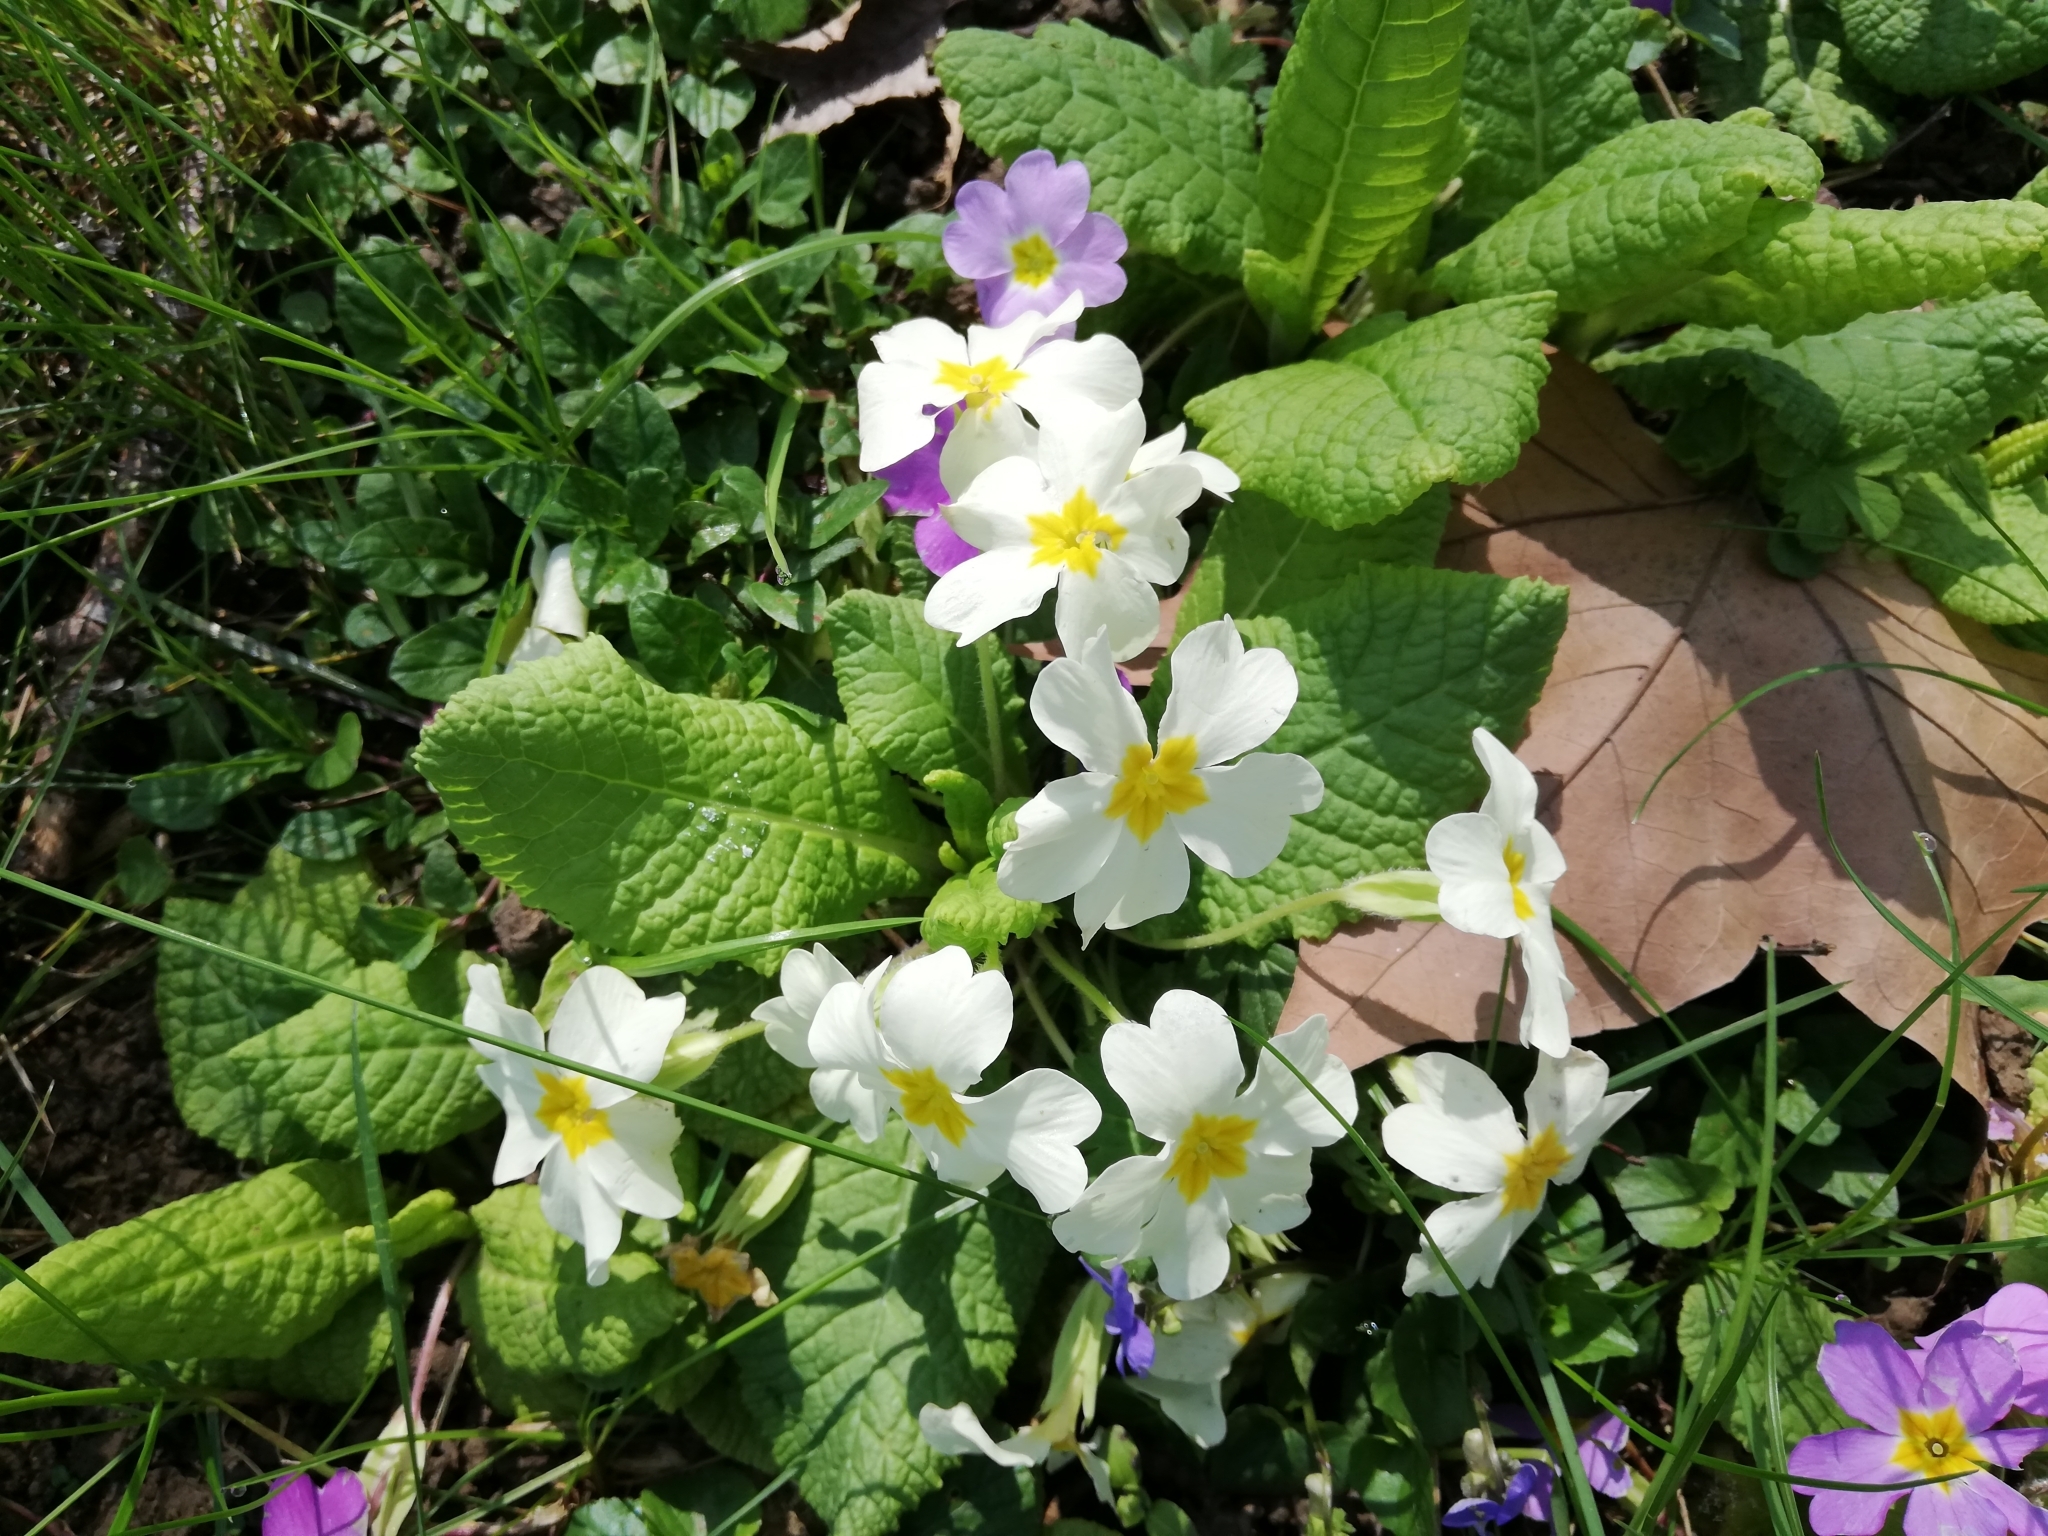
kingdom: Plantae
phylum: Tracheophyta
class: Magnoliopsida
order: Ericales
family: Primulaceae
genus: Primula
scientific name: Primula vulgaris
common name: Primrose
